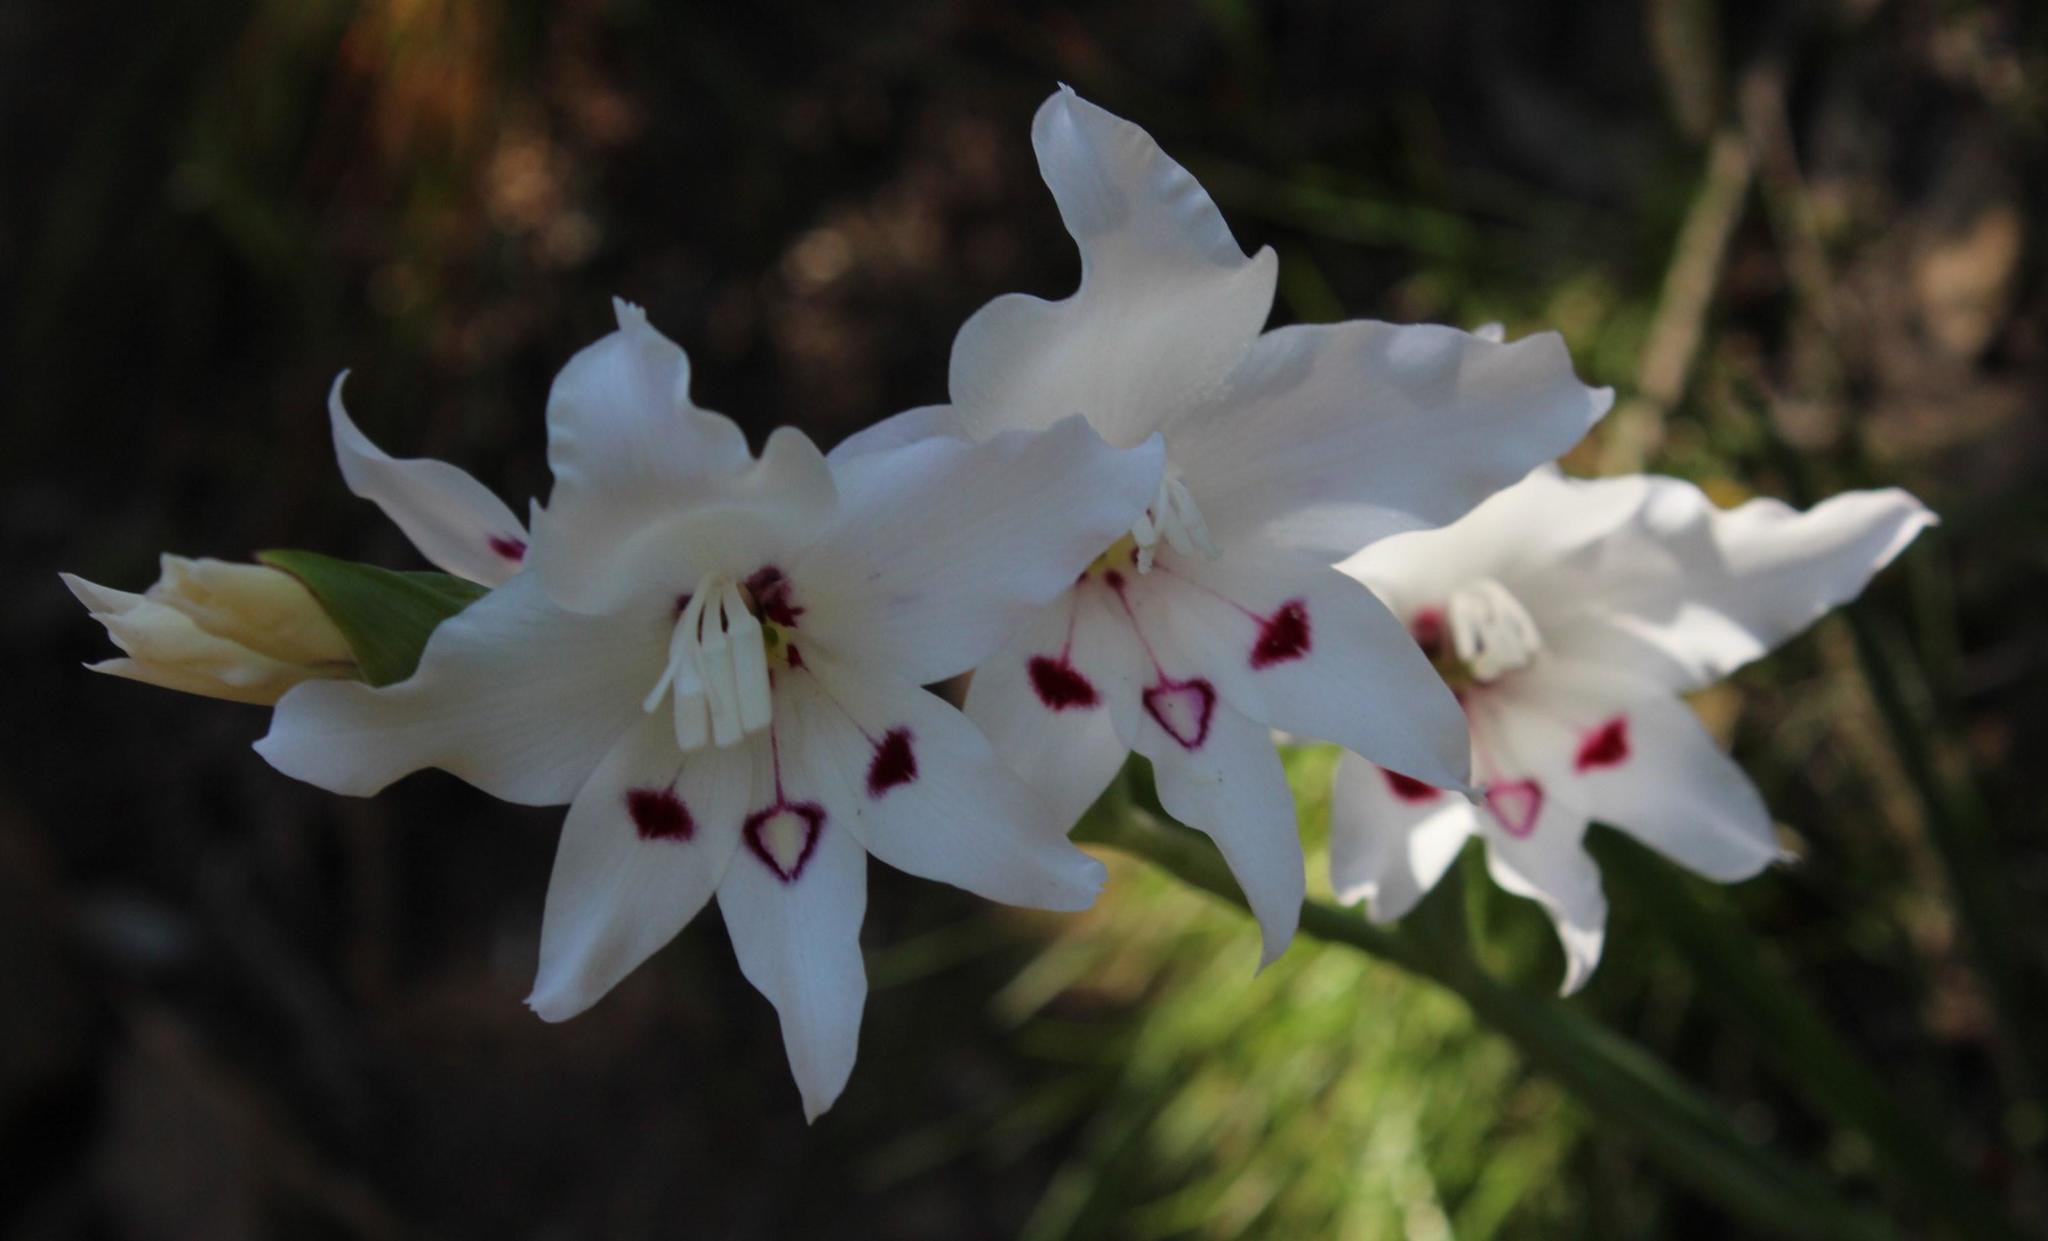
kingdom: Plantae
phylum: Tracheophyta
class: Liliopsida
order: Asparagales
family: Iridaceae
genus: Gladiolus
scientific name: Gladiolus carneus
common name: Painted-lady
